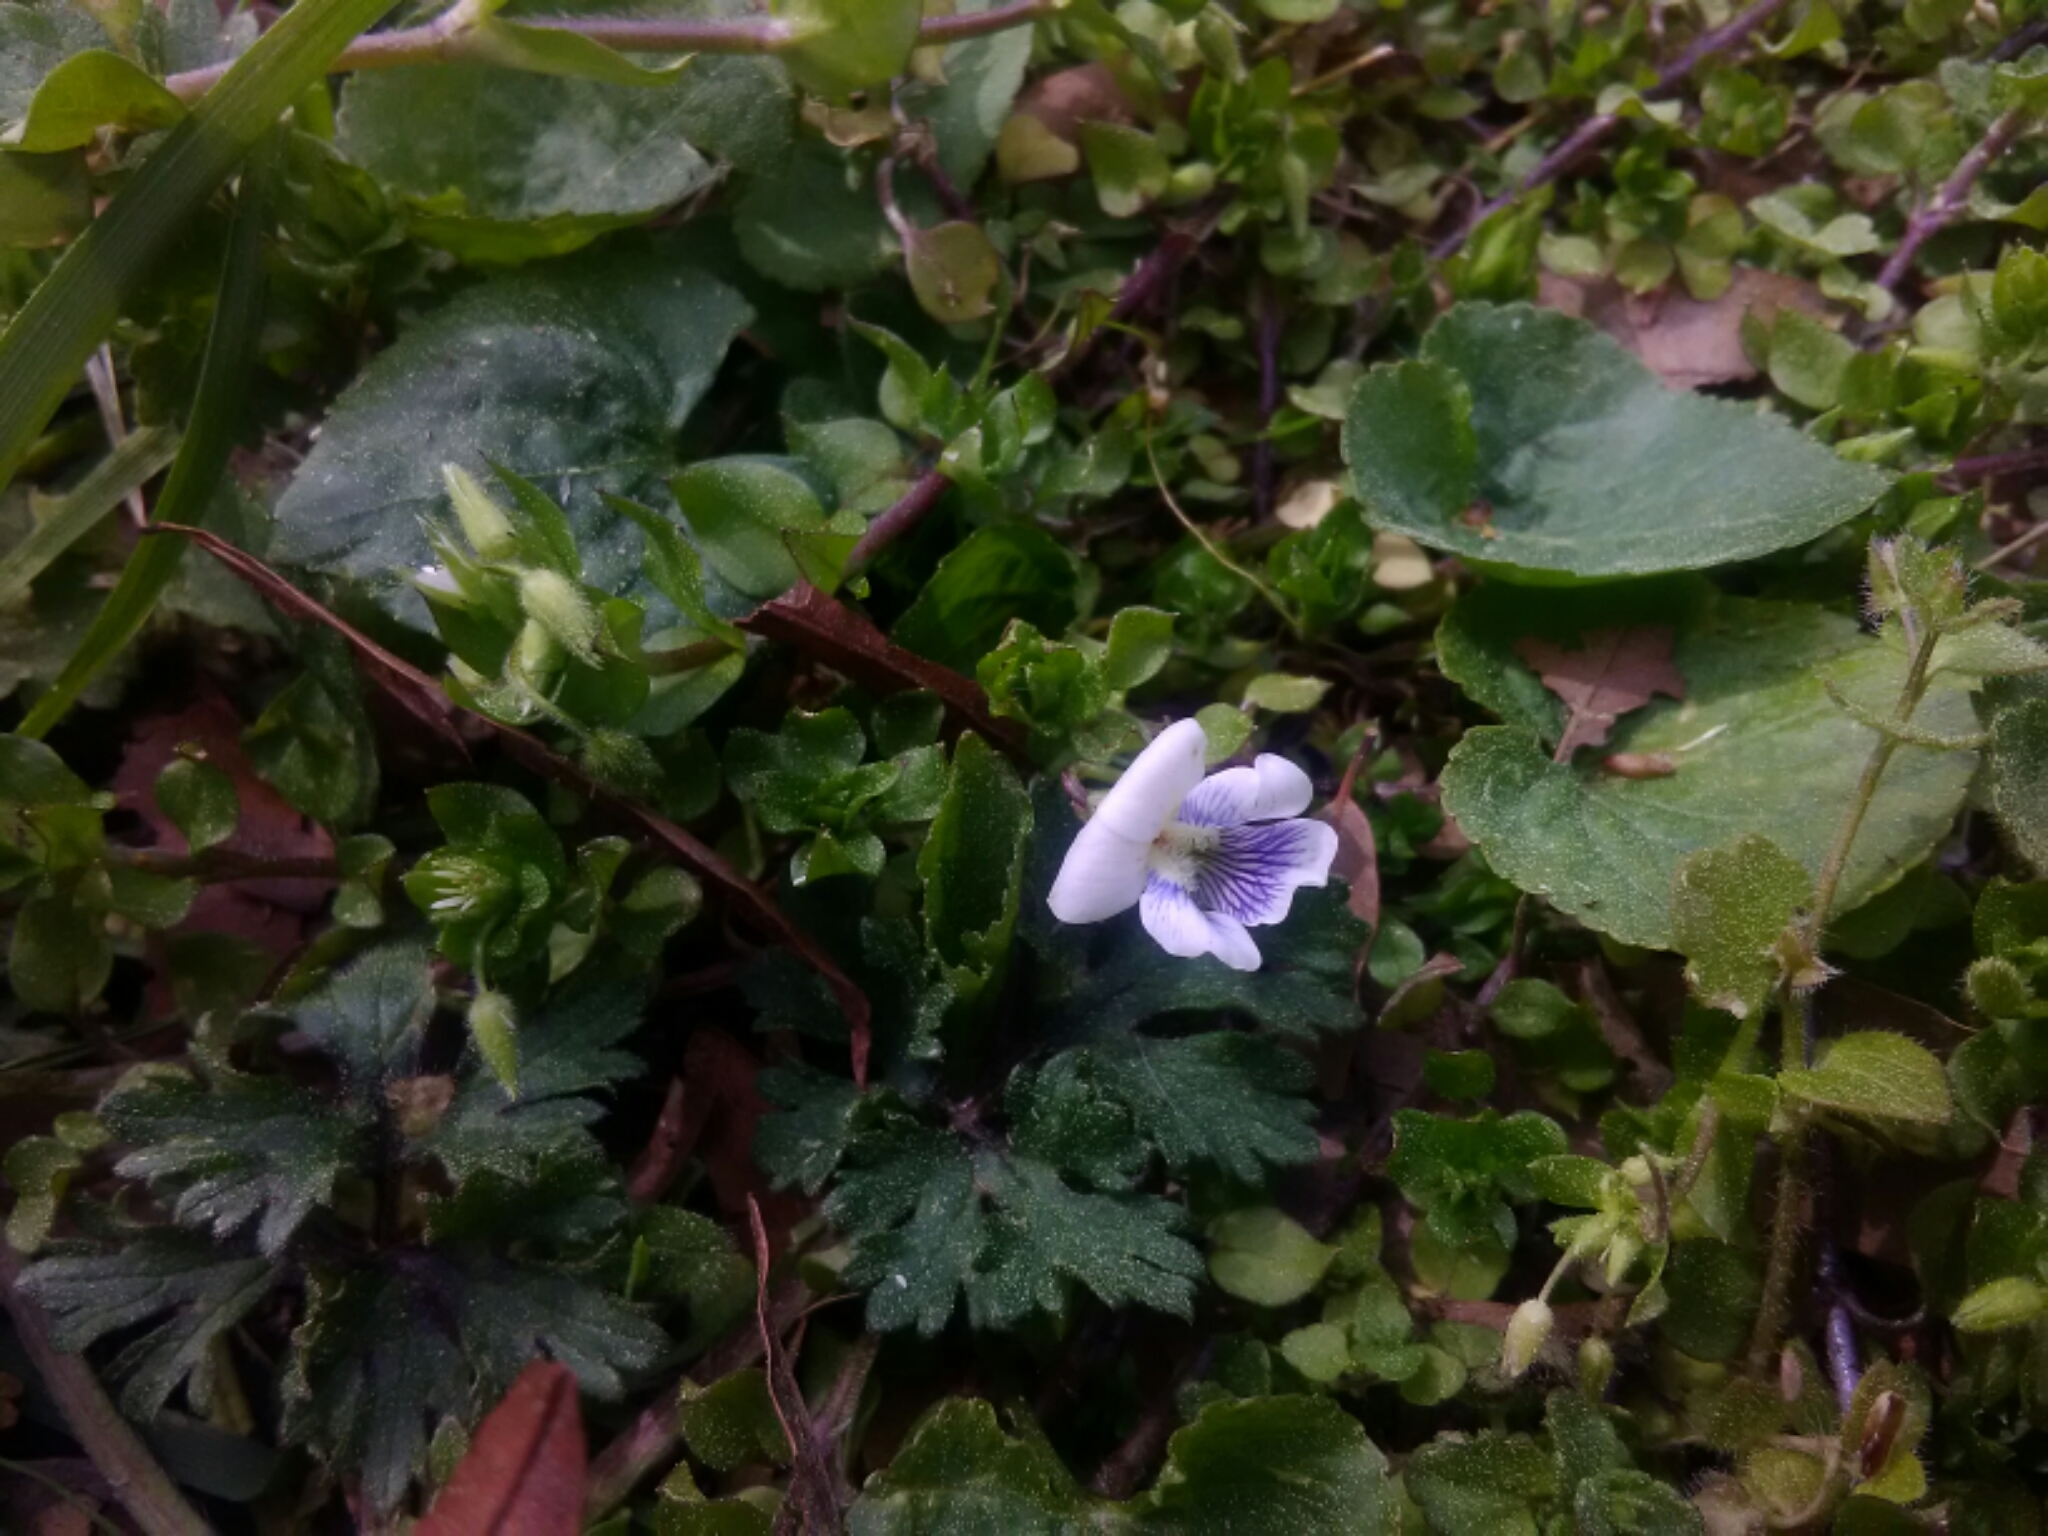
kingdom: Plantae
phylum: Tracheophyta
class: Magnoliopsida
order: Malpighiales
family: Violaceae
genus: Viola
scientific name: Viola sororia
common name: Dooryard violet
